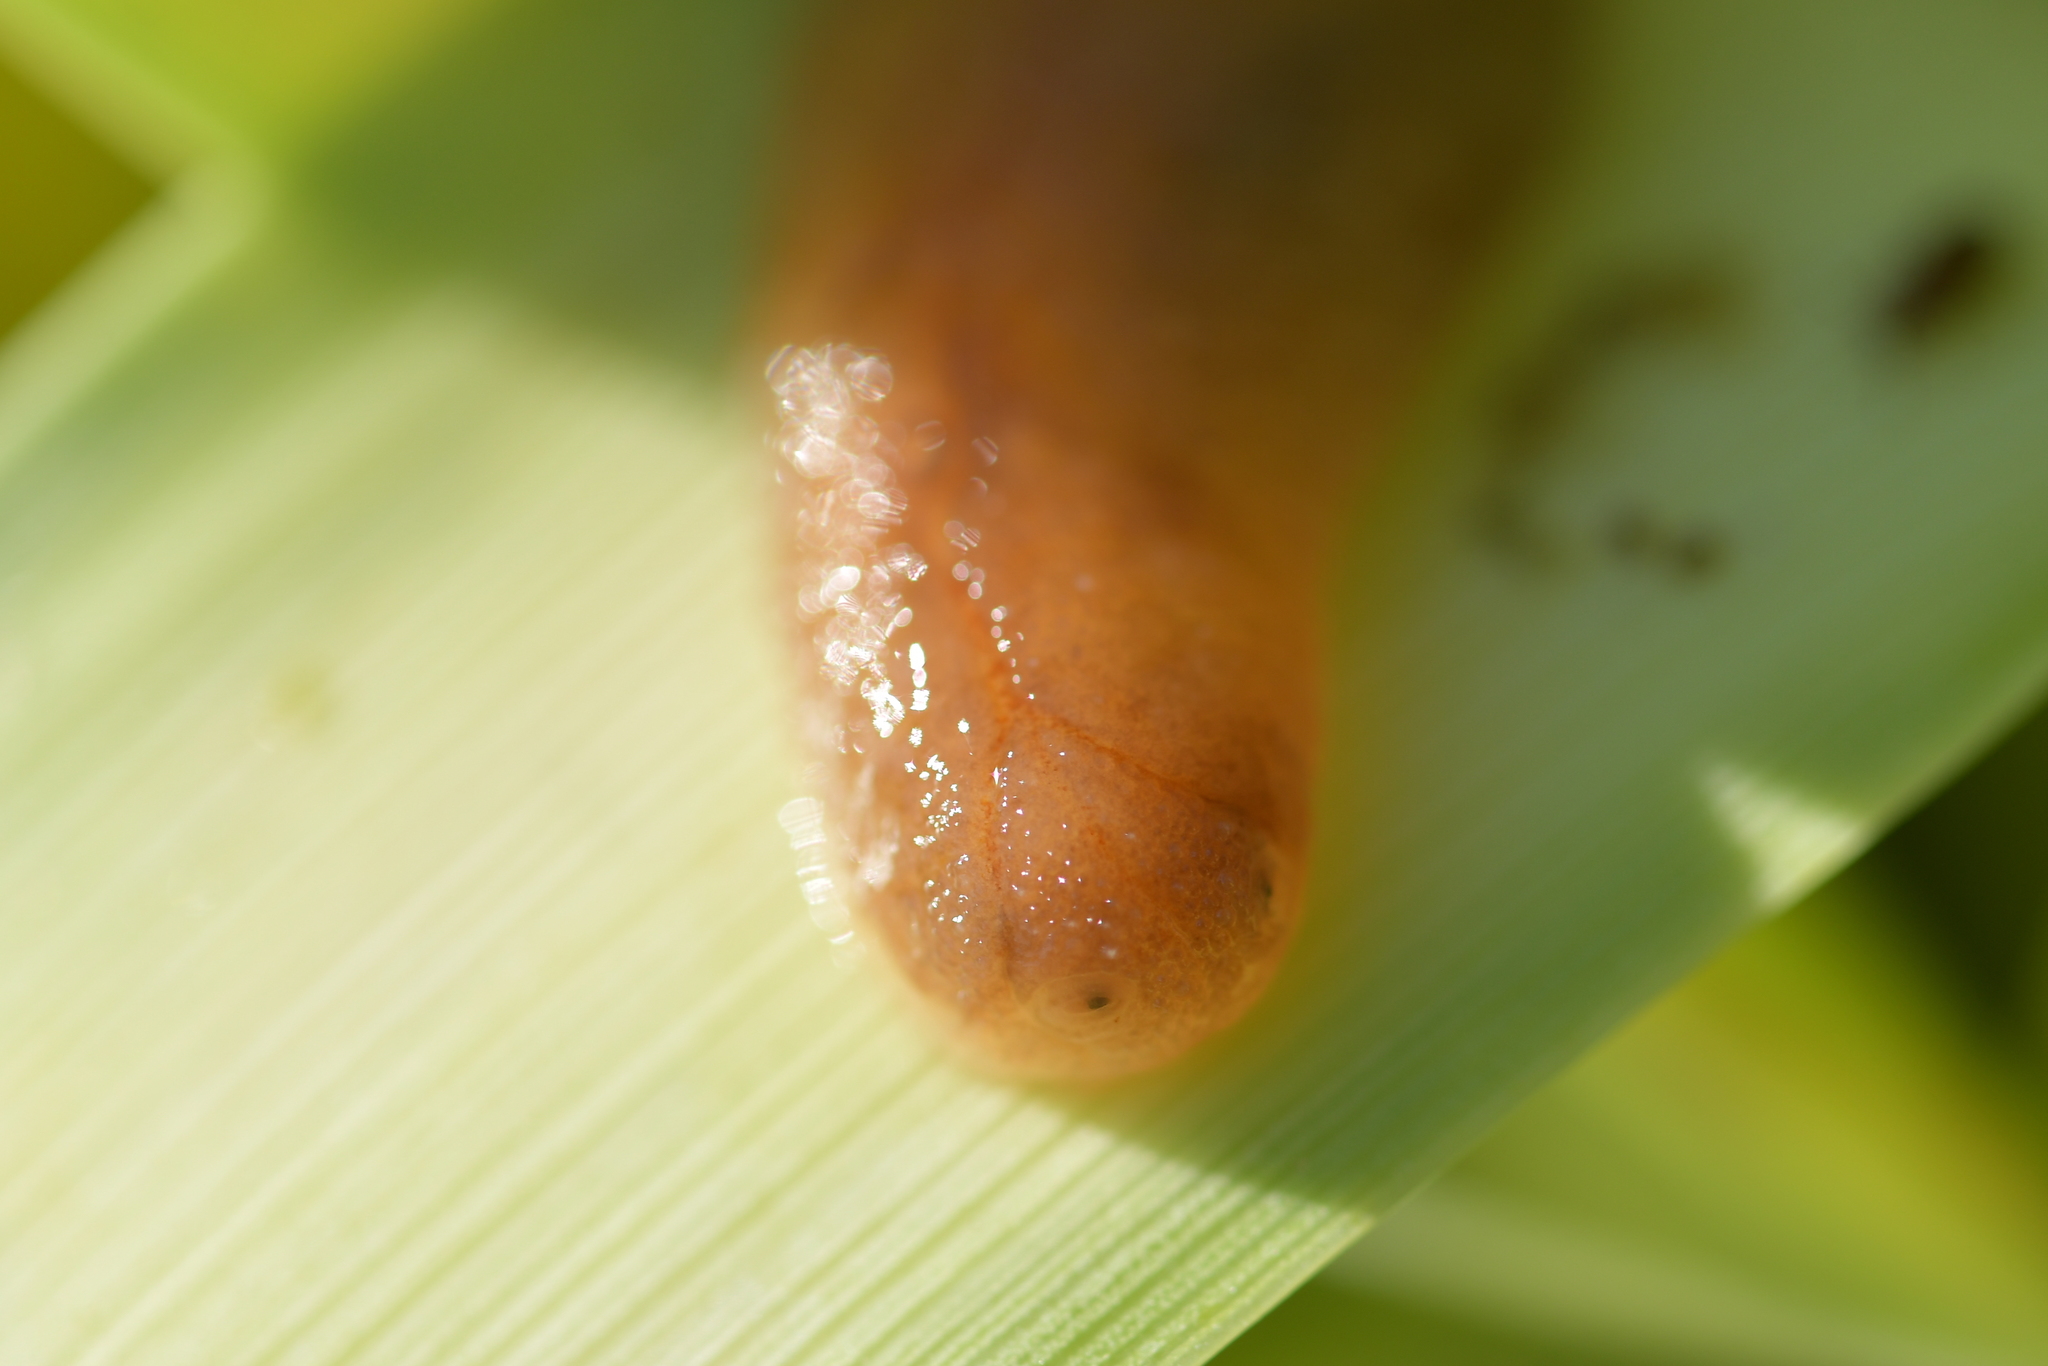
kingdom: Animalia
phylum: Mollusca
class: Gastropoda
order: Stylommatophora
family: Athoracophoridae
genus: Athoracophorus
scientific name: Athoracophorus bitentaculatus
